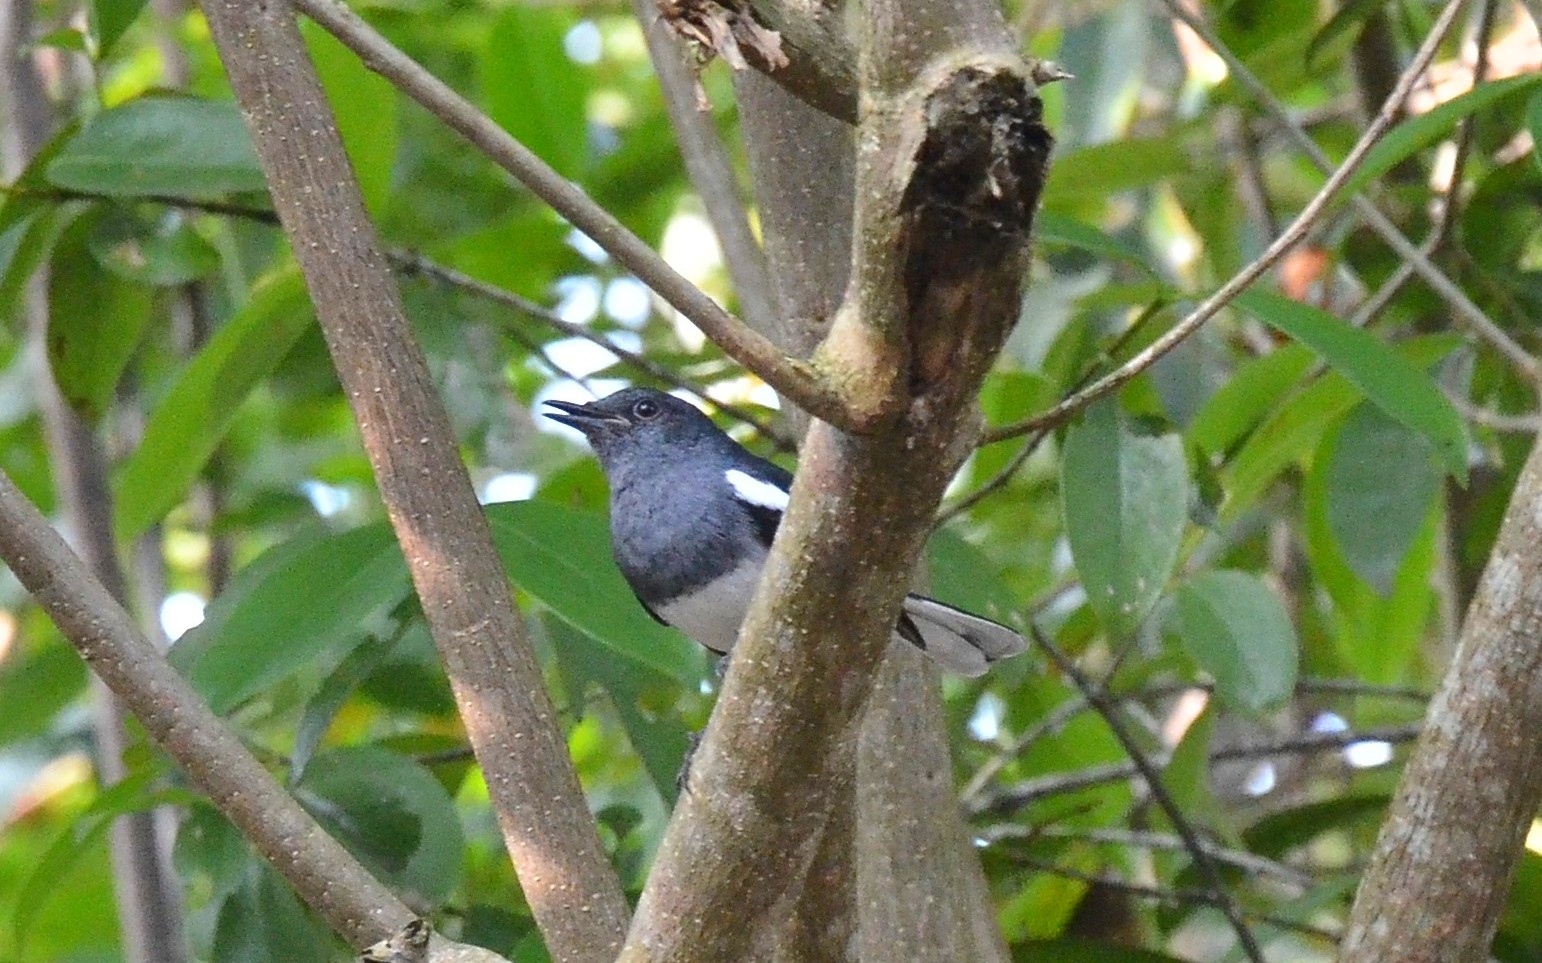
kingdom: Animalia
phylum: Chordata
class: Aves
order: Passeriformes
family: Muscicapidae
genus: Copsychus
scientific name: Copsychus saularis
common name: Oriental magpie-robin
